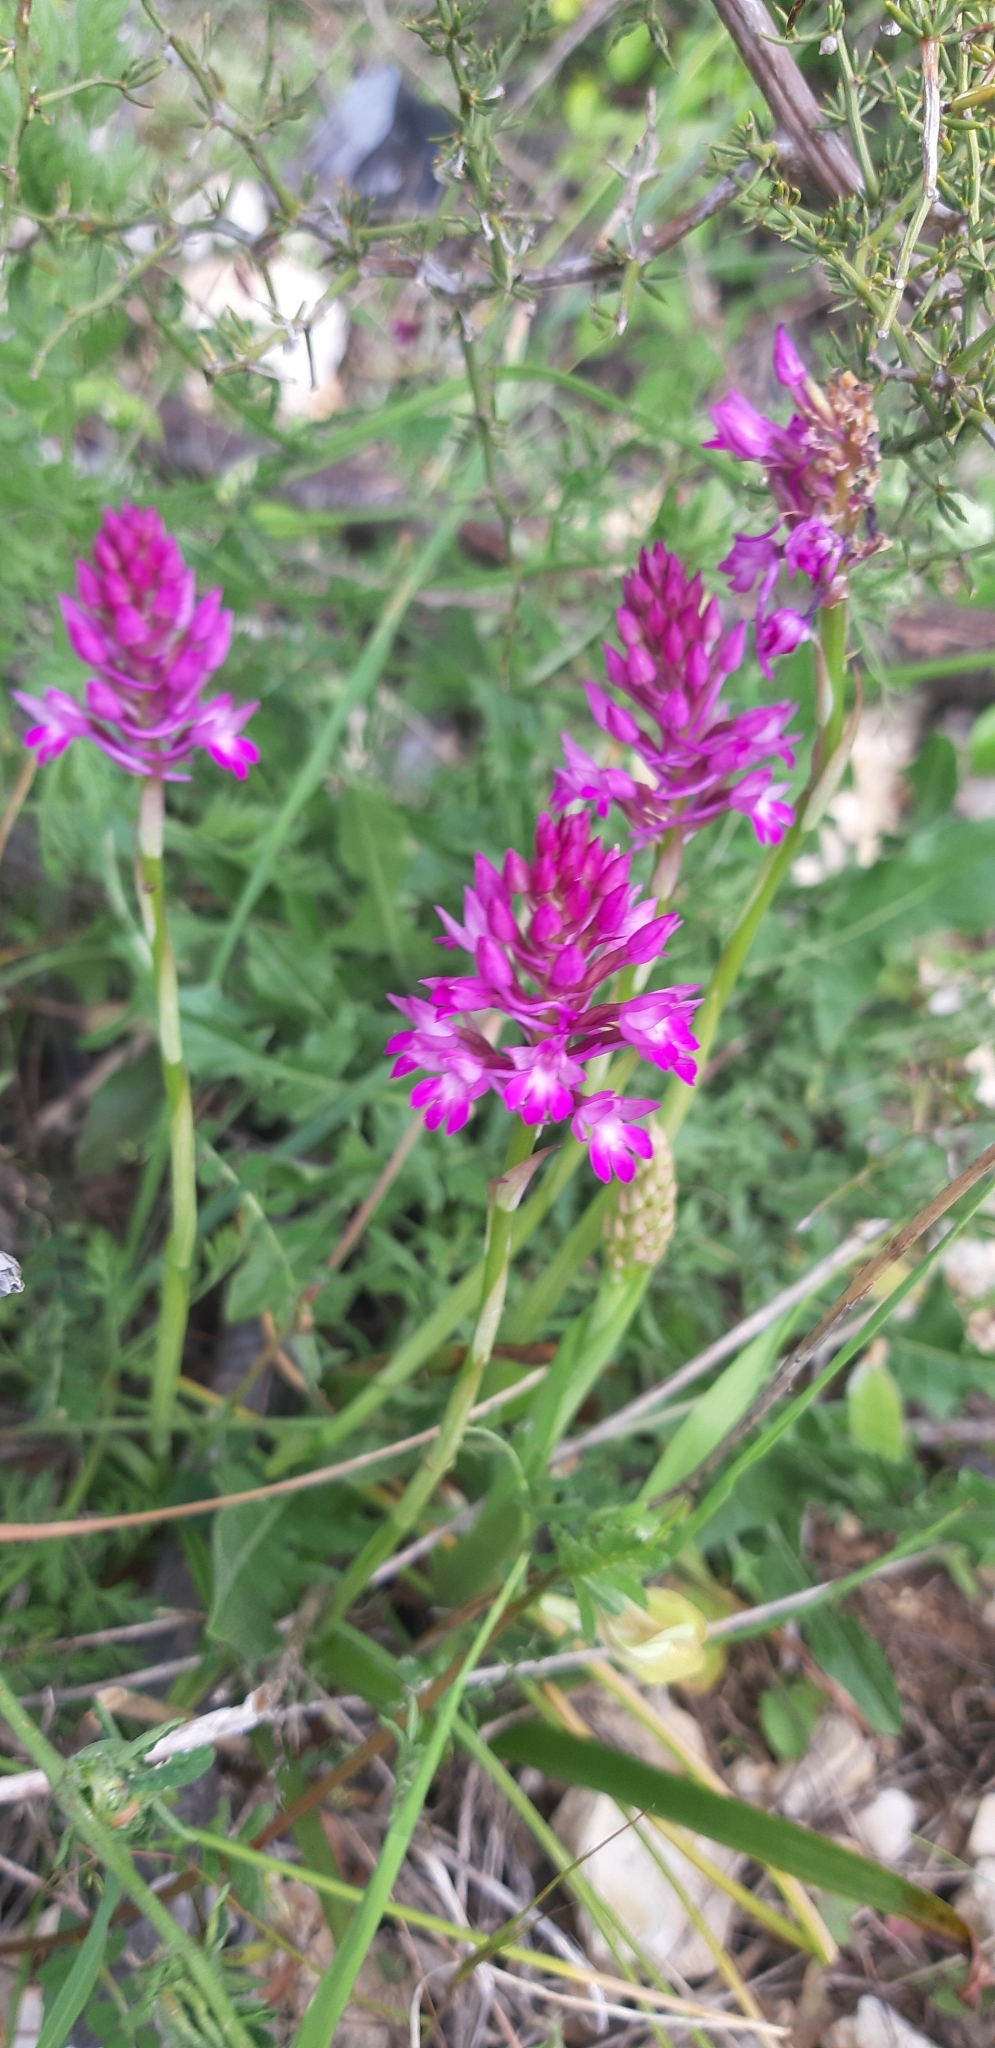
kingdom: Plantae
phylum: Tracheophyta
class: Liliopsida
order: Asparagales
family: Orchidaceae
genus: Anacamptis
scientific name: Anacamptis pyramidalis
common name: Pyramidal orchid
